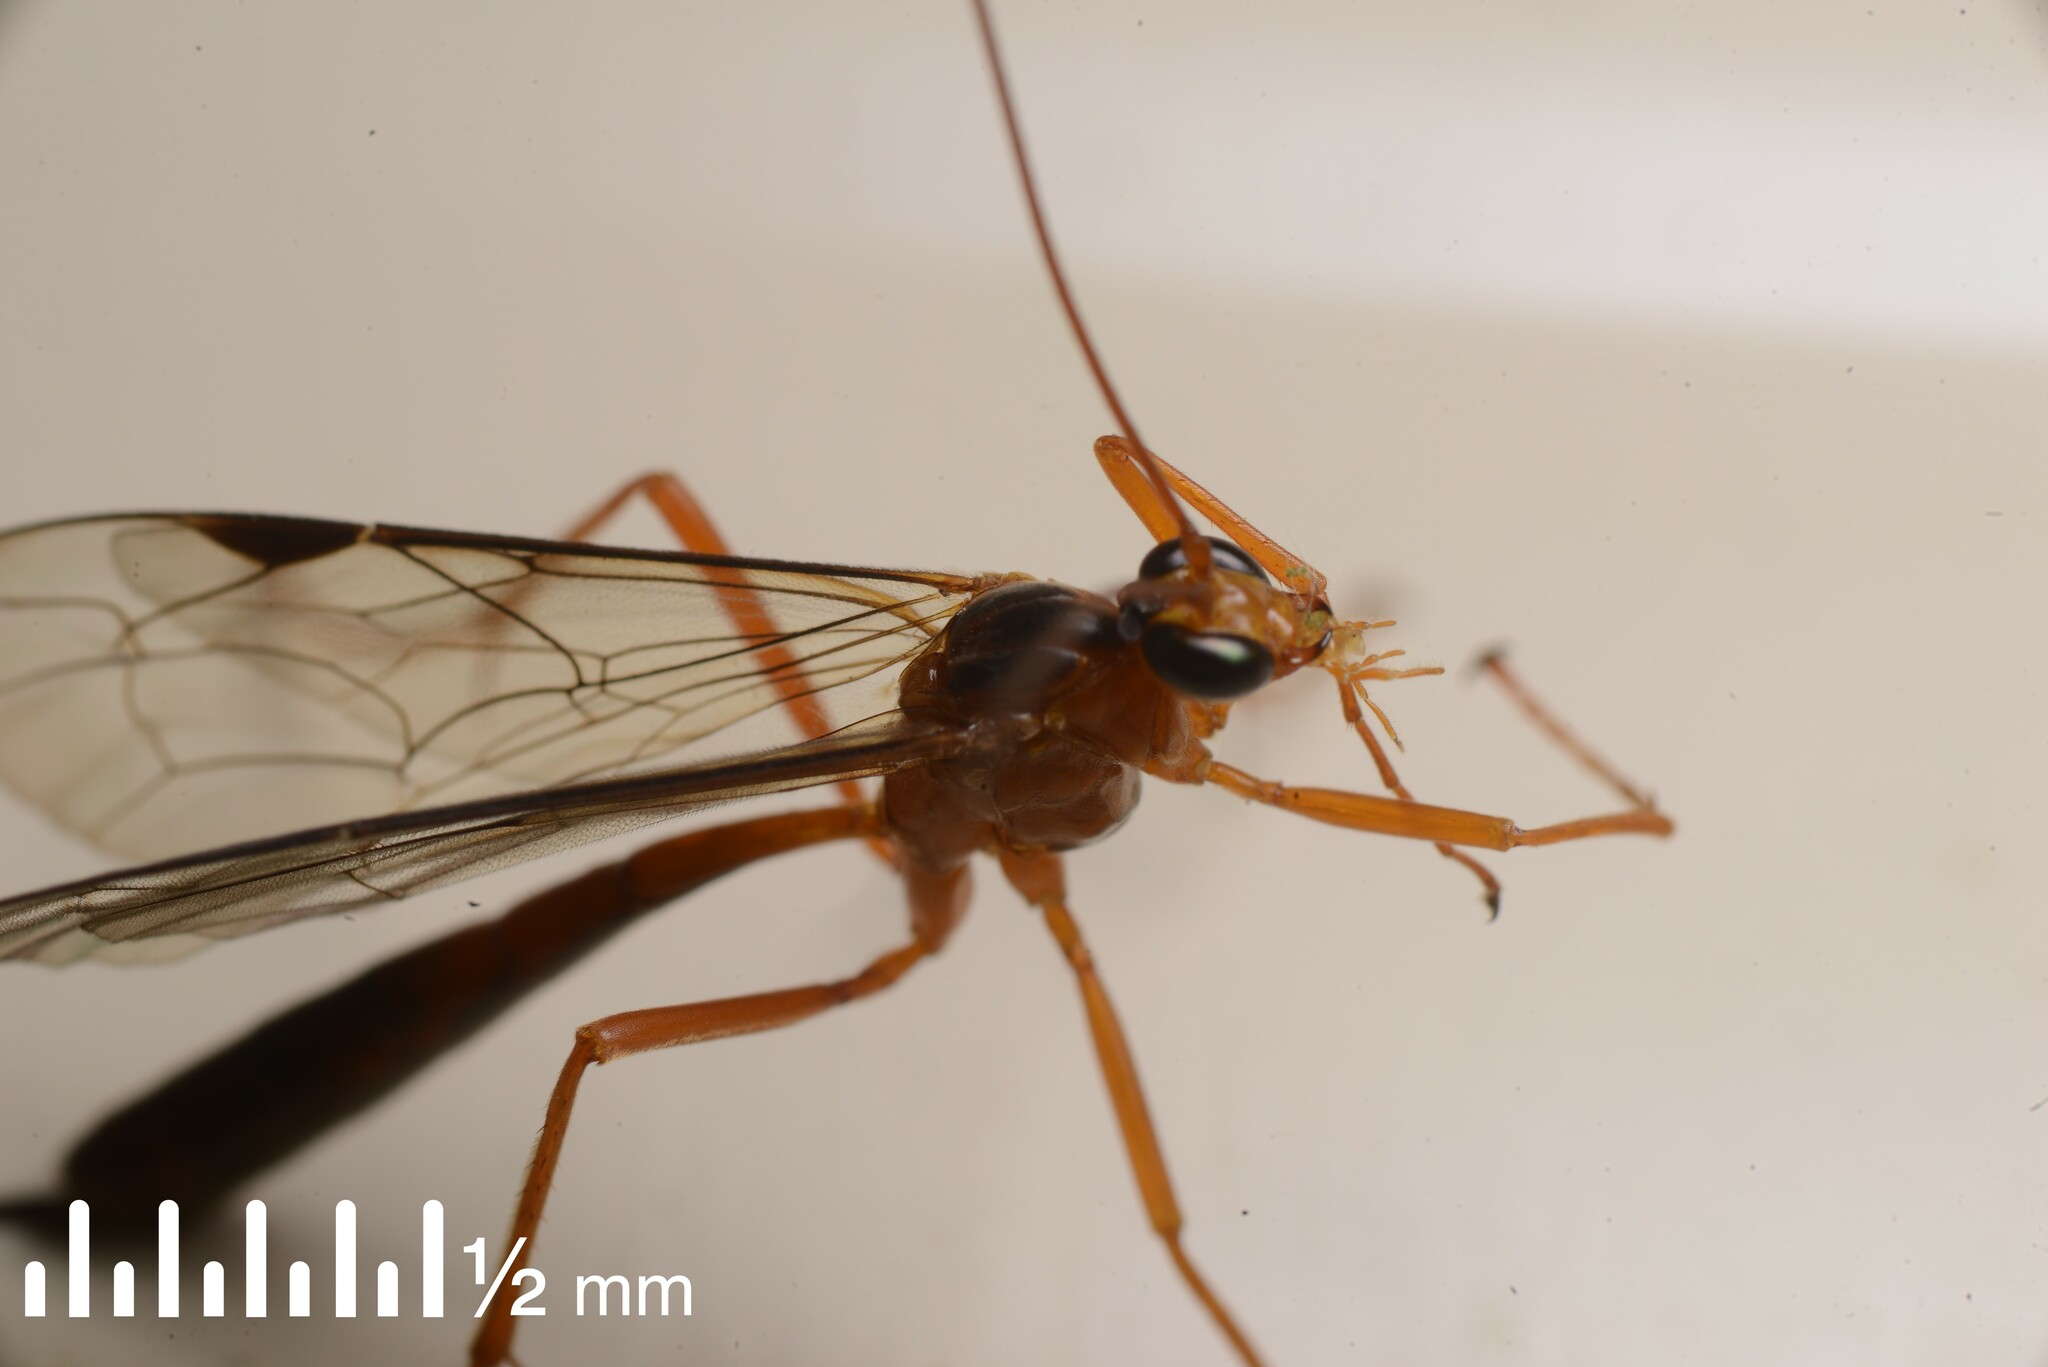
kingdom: Animalia
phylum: Arthropoda
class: Insecta
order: Hymenoptera
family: Ichneumonidae
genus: Netelia
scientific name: Netelia ephippiata
